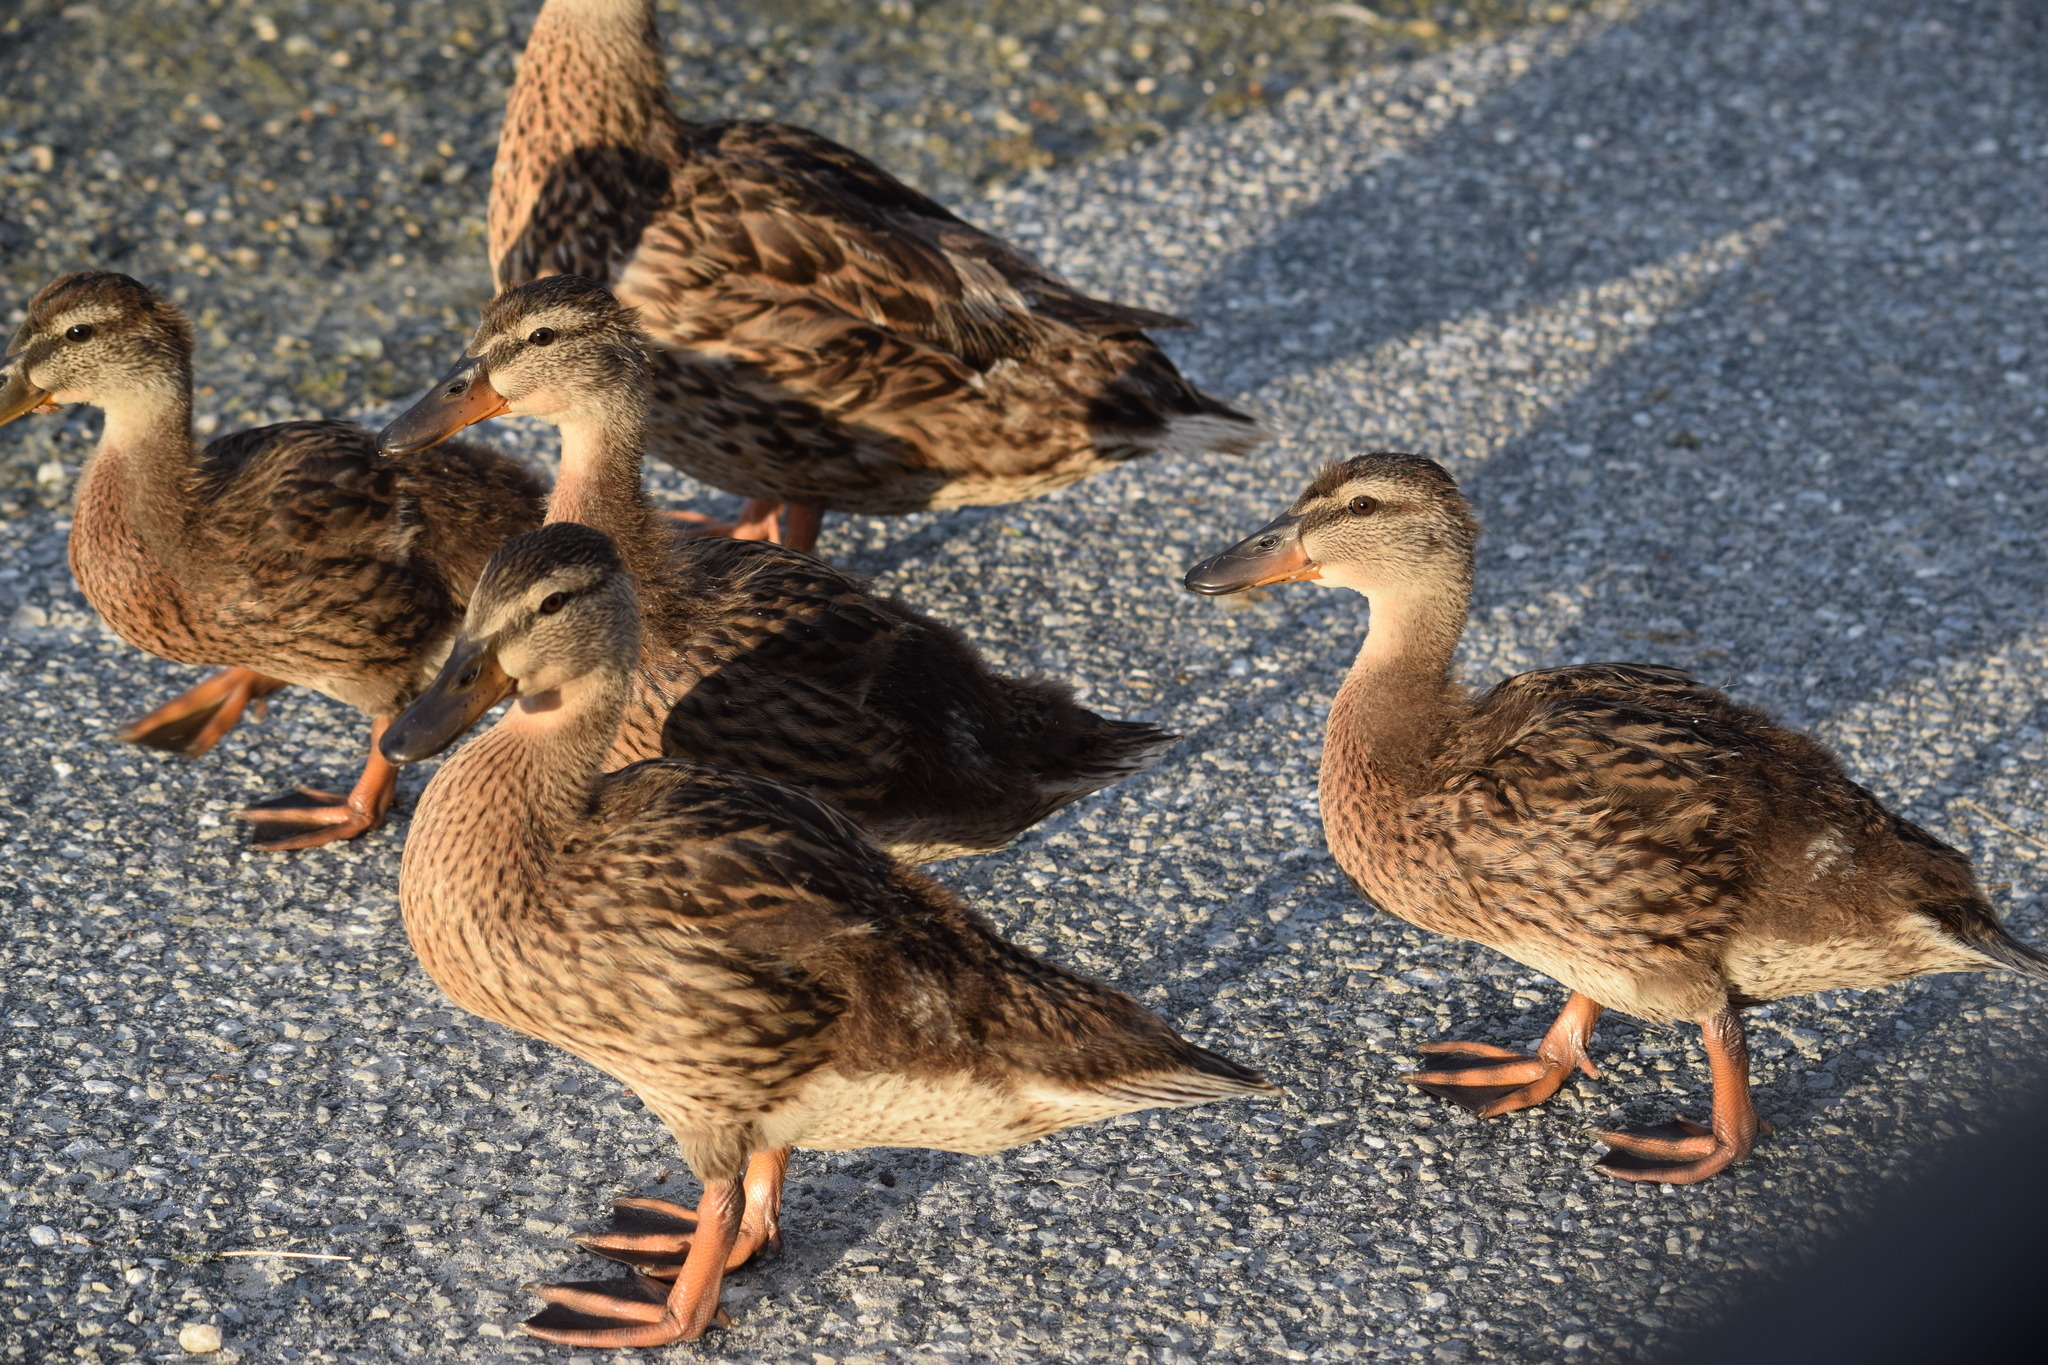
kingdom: Animalia
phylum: Chordata
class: Aves
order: Anseriformes
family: Anatidae
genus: Anas
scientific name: Anas platyrhynchos
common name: Mallard
